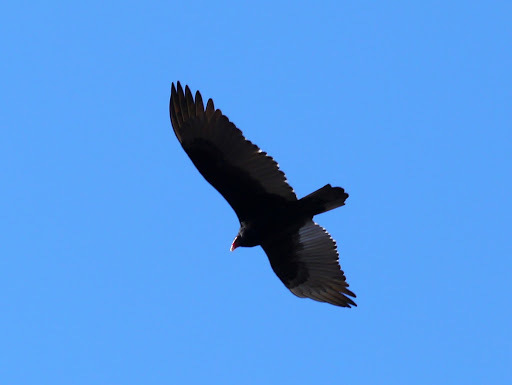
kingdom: Animalia
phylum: Chordata
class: Aves
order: Accipitriformes
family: Cathartidae
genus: Cathartes
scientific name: Cathartes aura
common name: Turkey vulture
